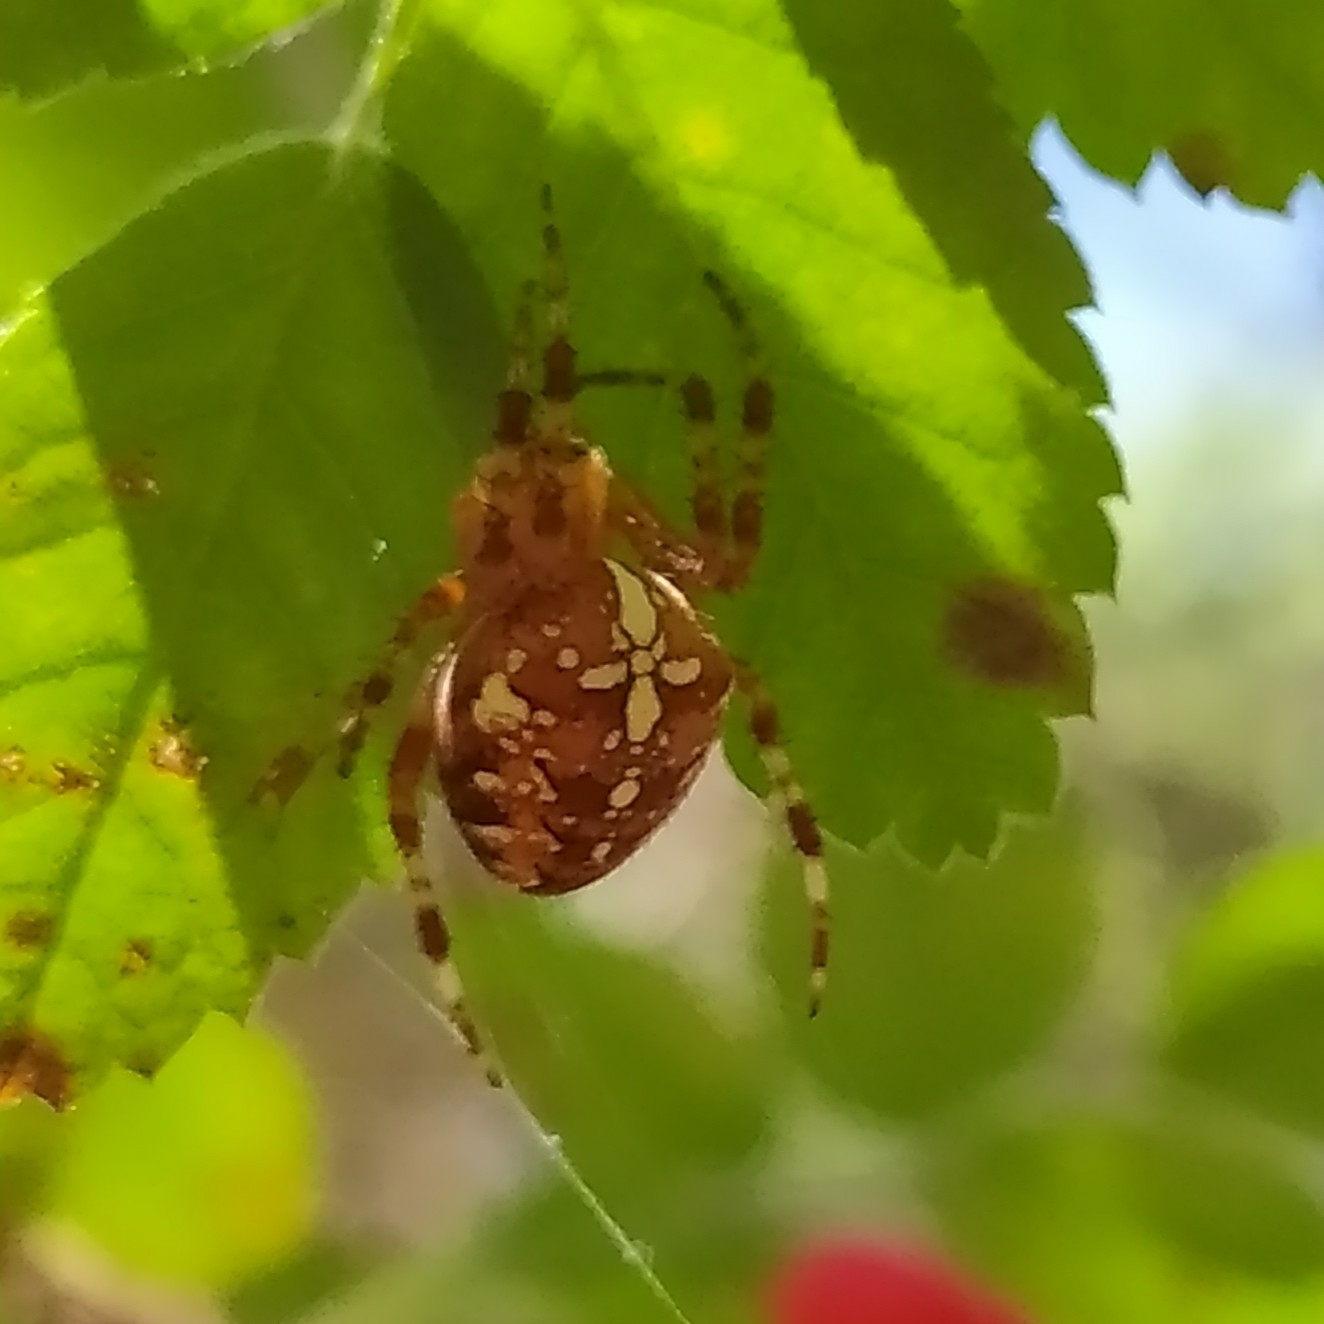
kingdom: Animalia
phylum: Arthropoda
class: Arachnida
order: Araneae
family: Araneidae
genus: Araneus
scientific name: Araneus diadematus
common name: Cross orbweaver
